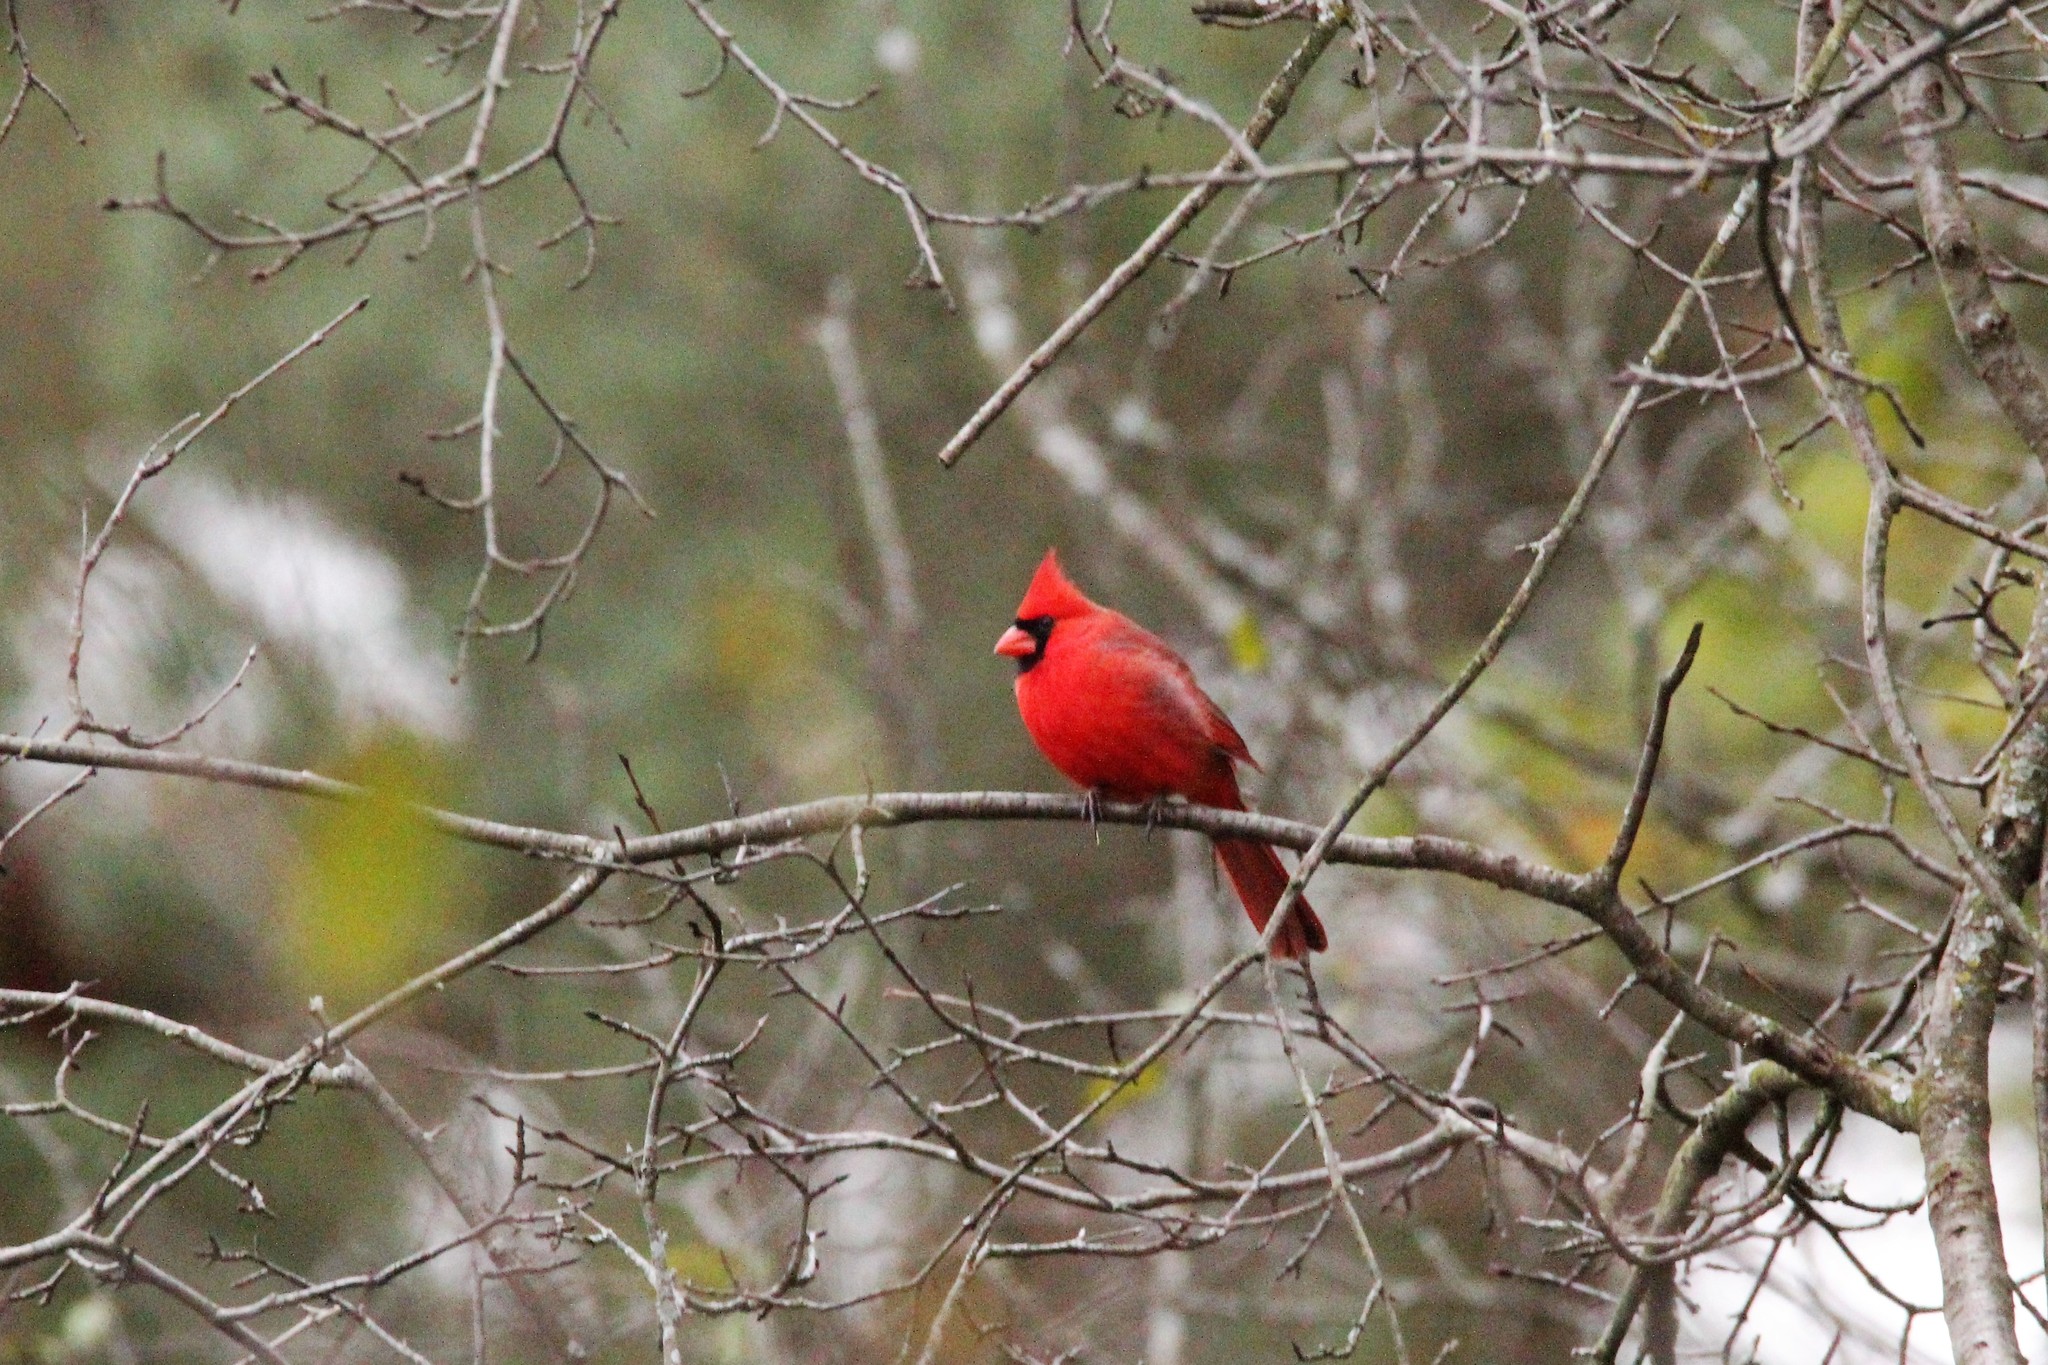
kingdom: Animalia
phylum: Chordata
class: Aves
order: Passeriformes
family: Cardinalidae
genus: Cardinalis
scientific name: Cardinalis cardinalis
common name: Northern cardinal
